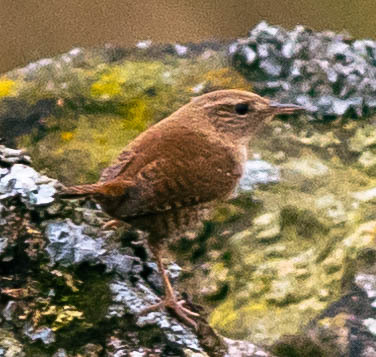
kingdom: Animalia
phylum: Chordata
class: Aves
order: Passeriformes
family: Troglodytidae
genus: Troglodytes
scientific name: Troglodytes troglodytes
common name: Eurasian wren
